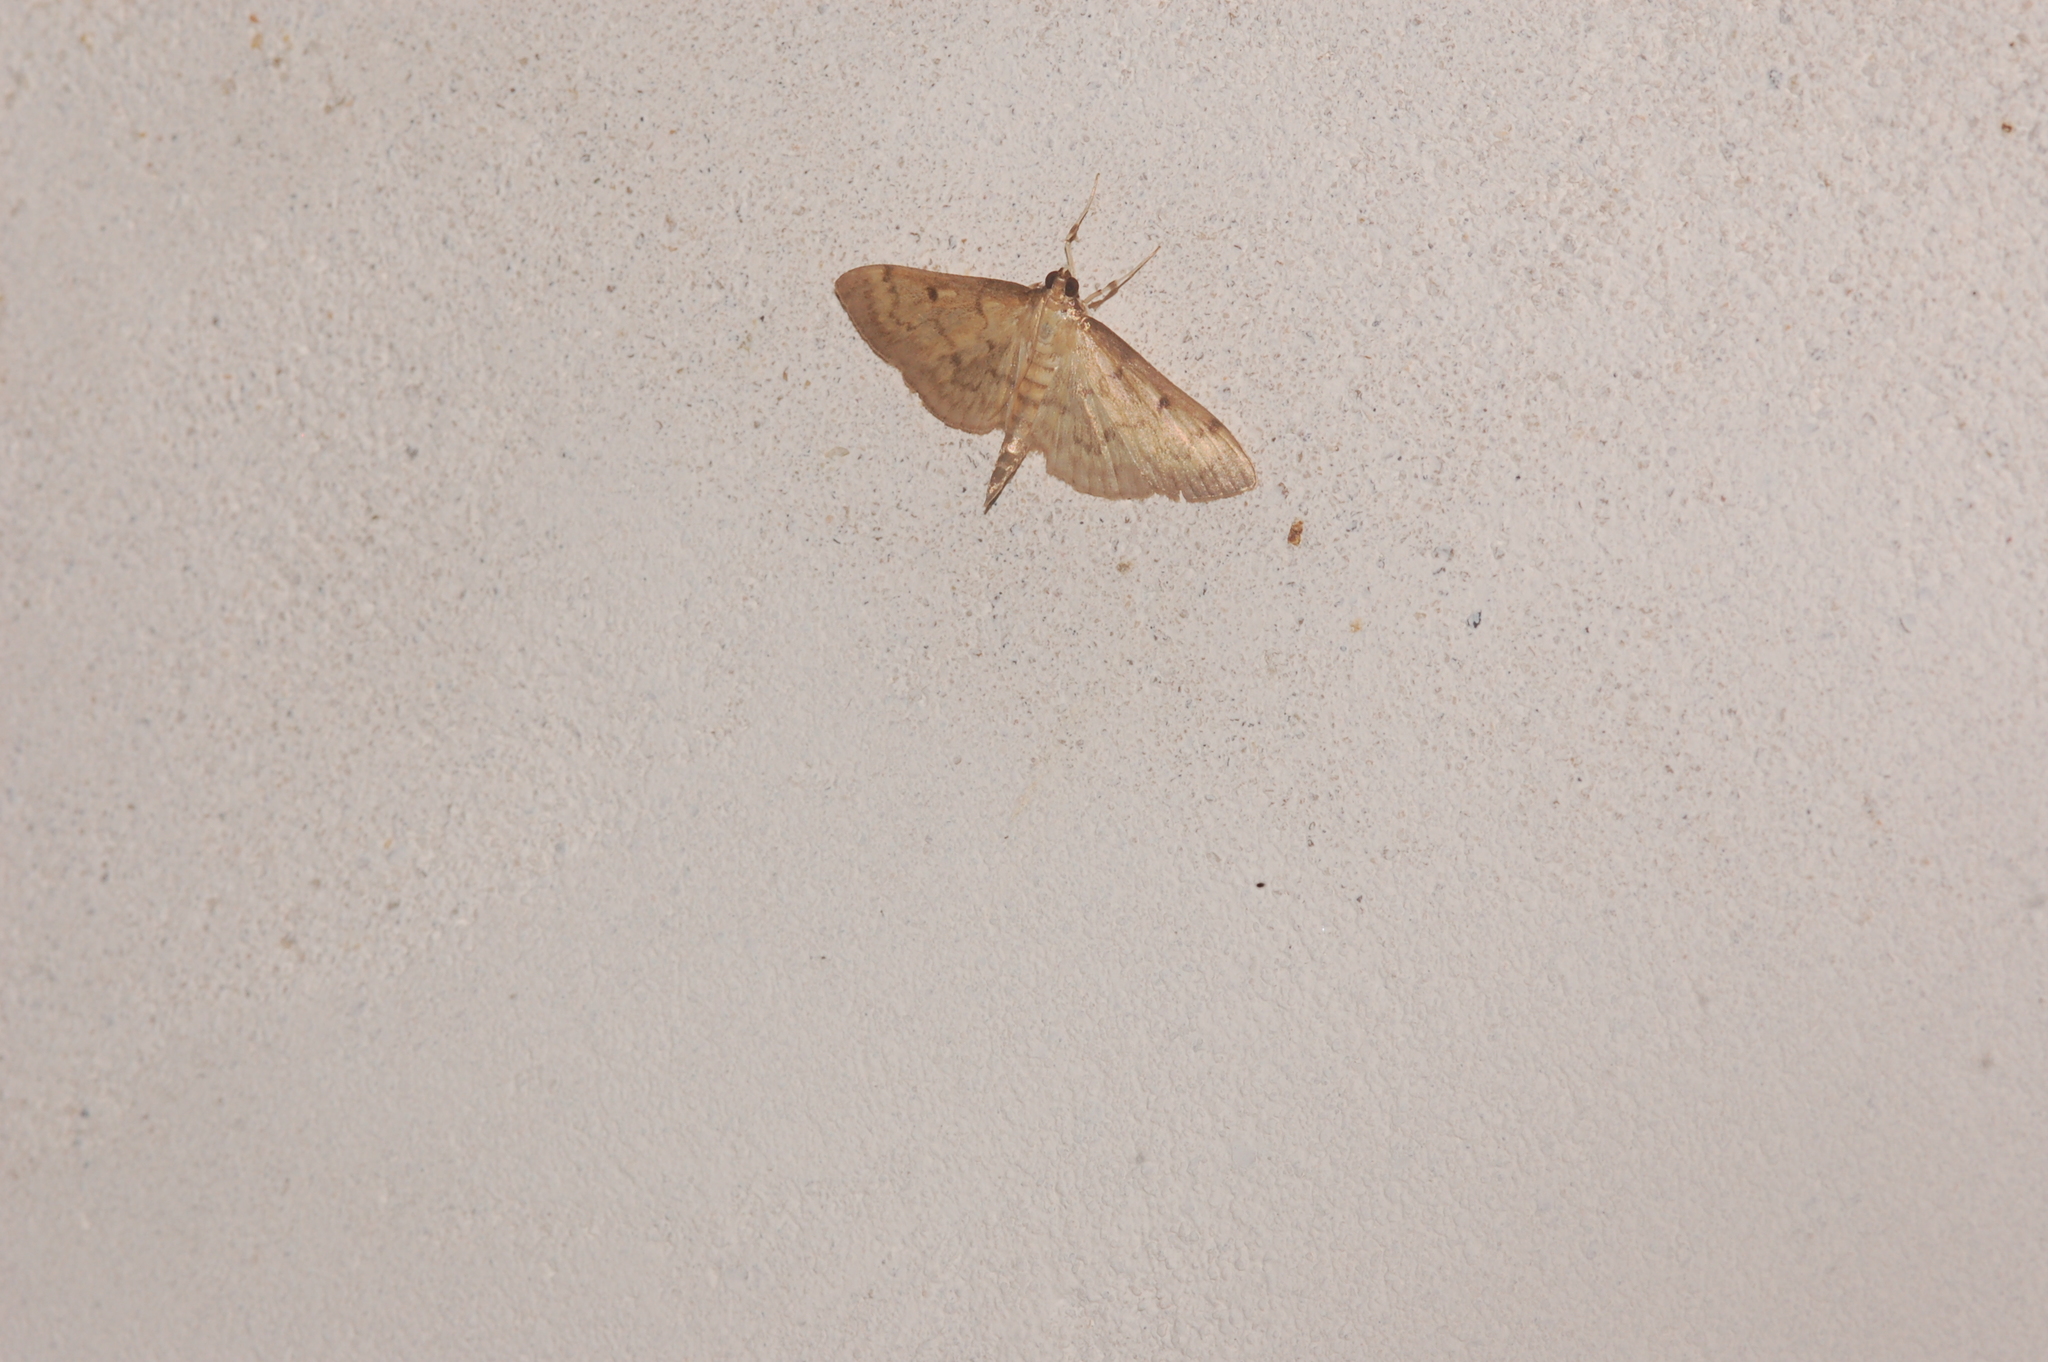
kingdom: Animalia
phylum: Arthropoda
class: Insecta
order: Lepidoptera
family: Crambidae
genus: Herpetogramma
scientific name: Herpetogramma bipunctalis
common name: Southern beet webworm
